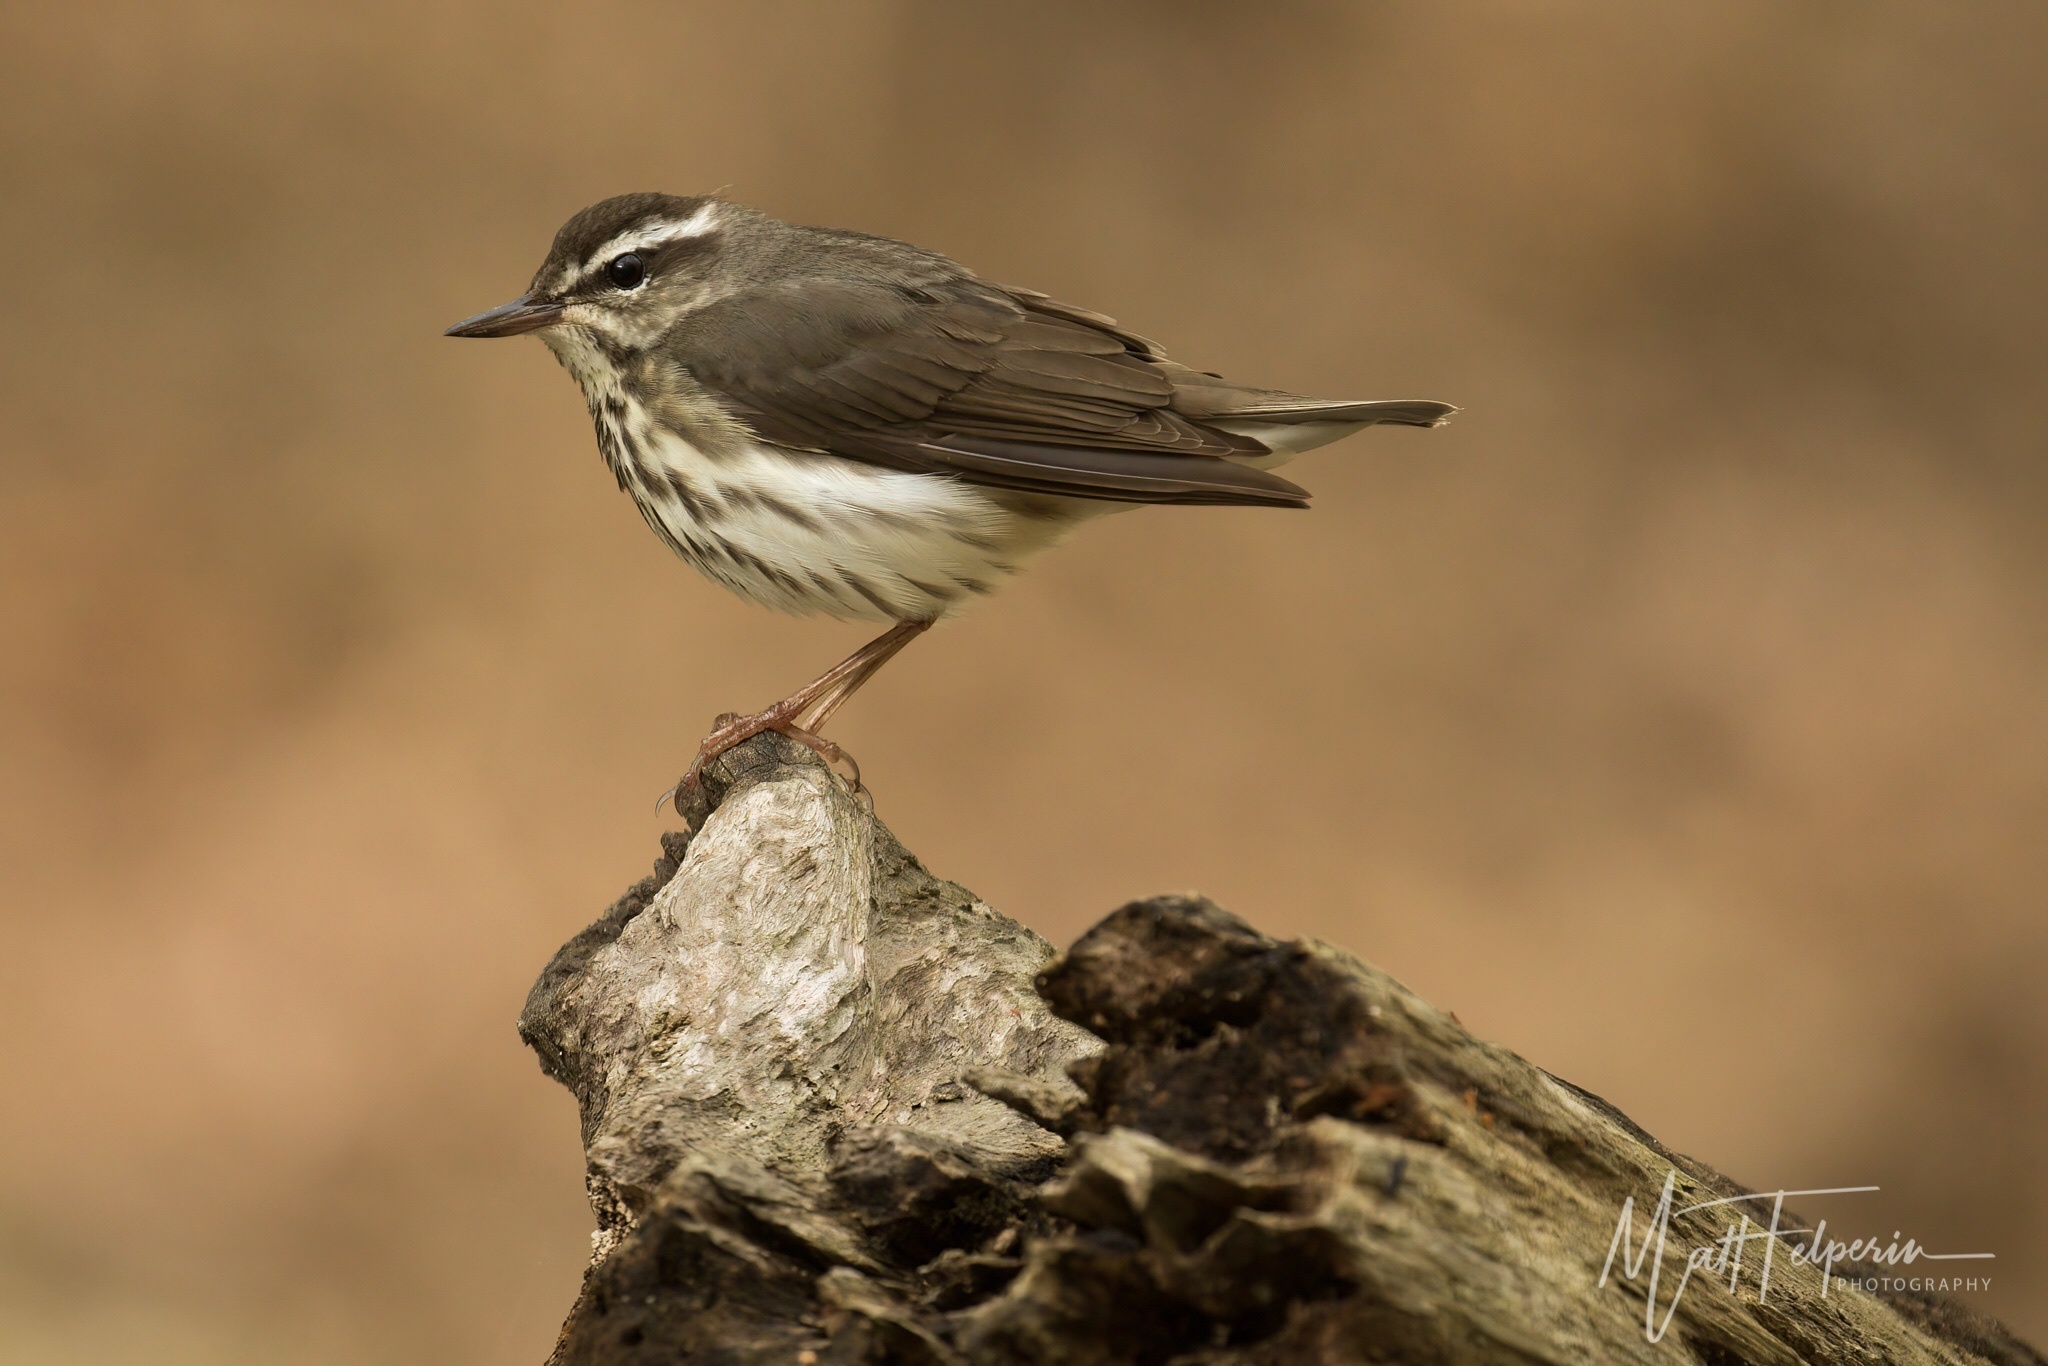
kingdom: Animalia
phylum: Chordata
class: Aves
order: Passeriformes
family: Parulidae
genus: Parkesia
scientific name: Parkesia motacilla
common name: Louisiana waterthrush
